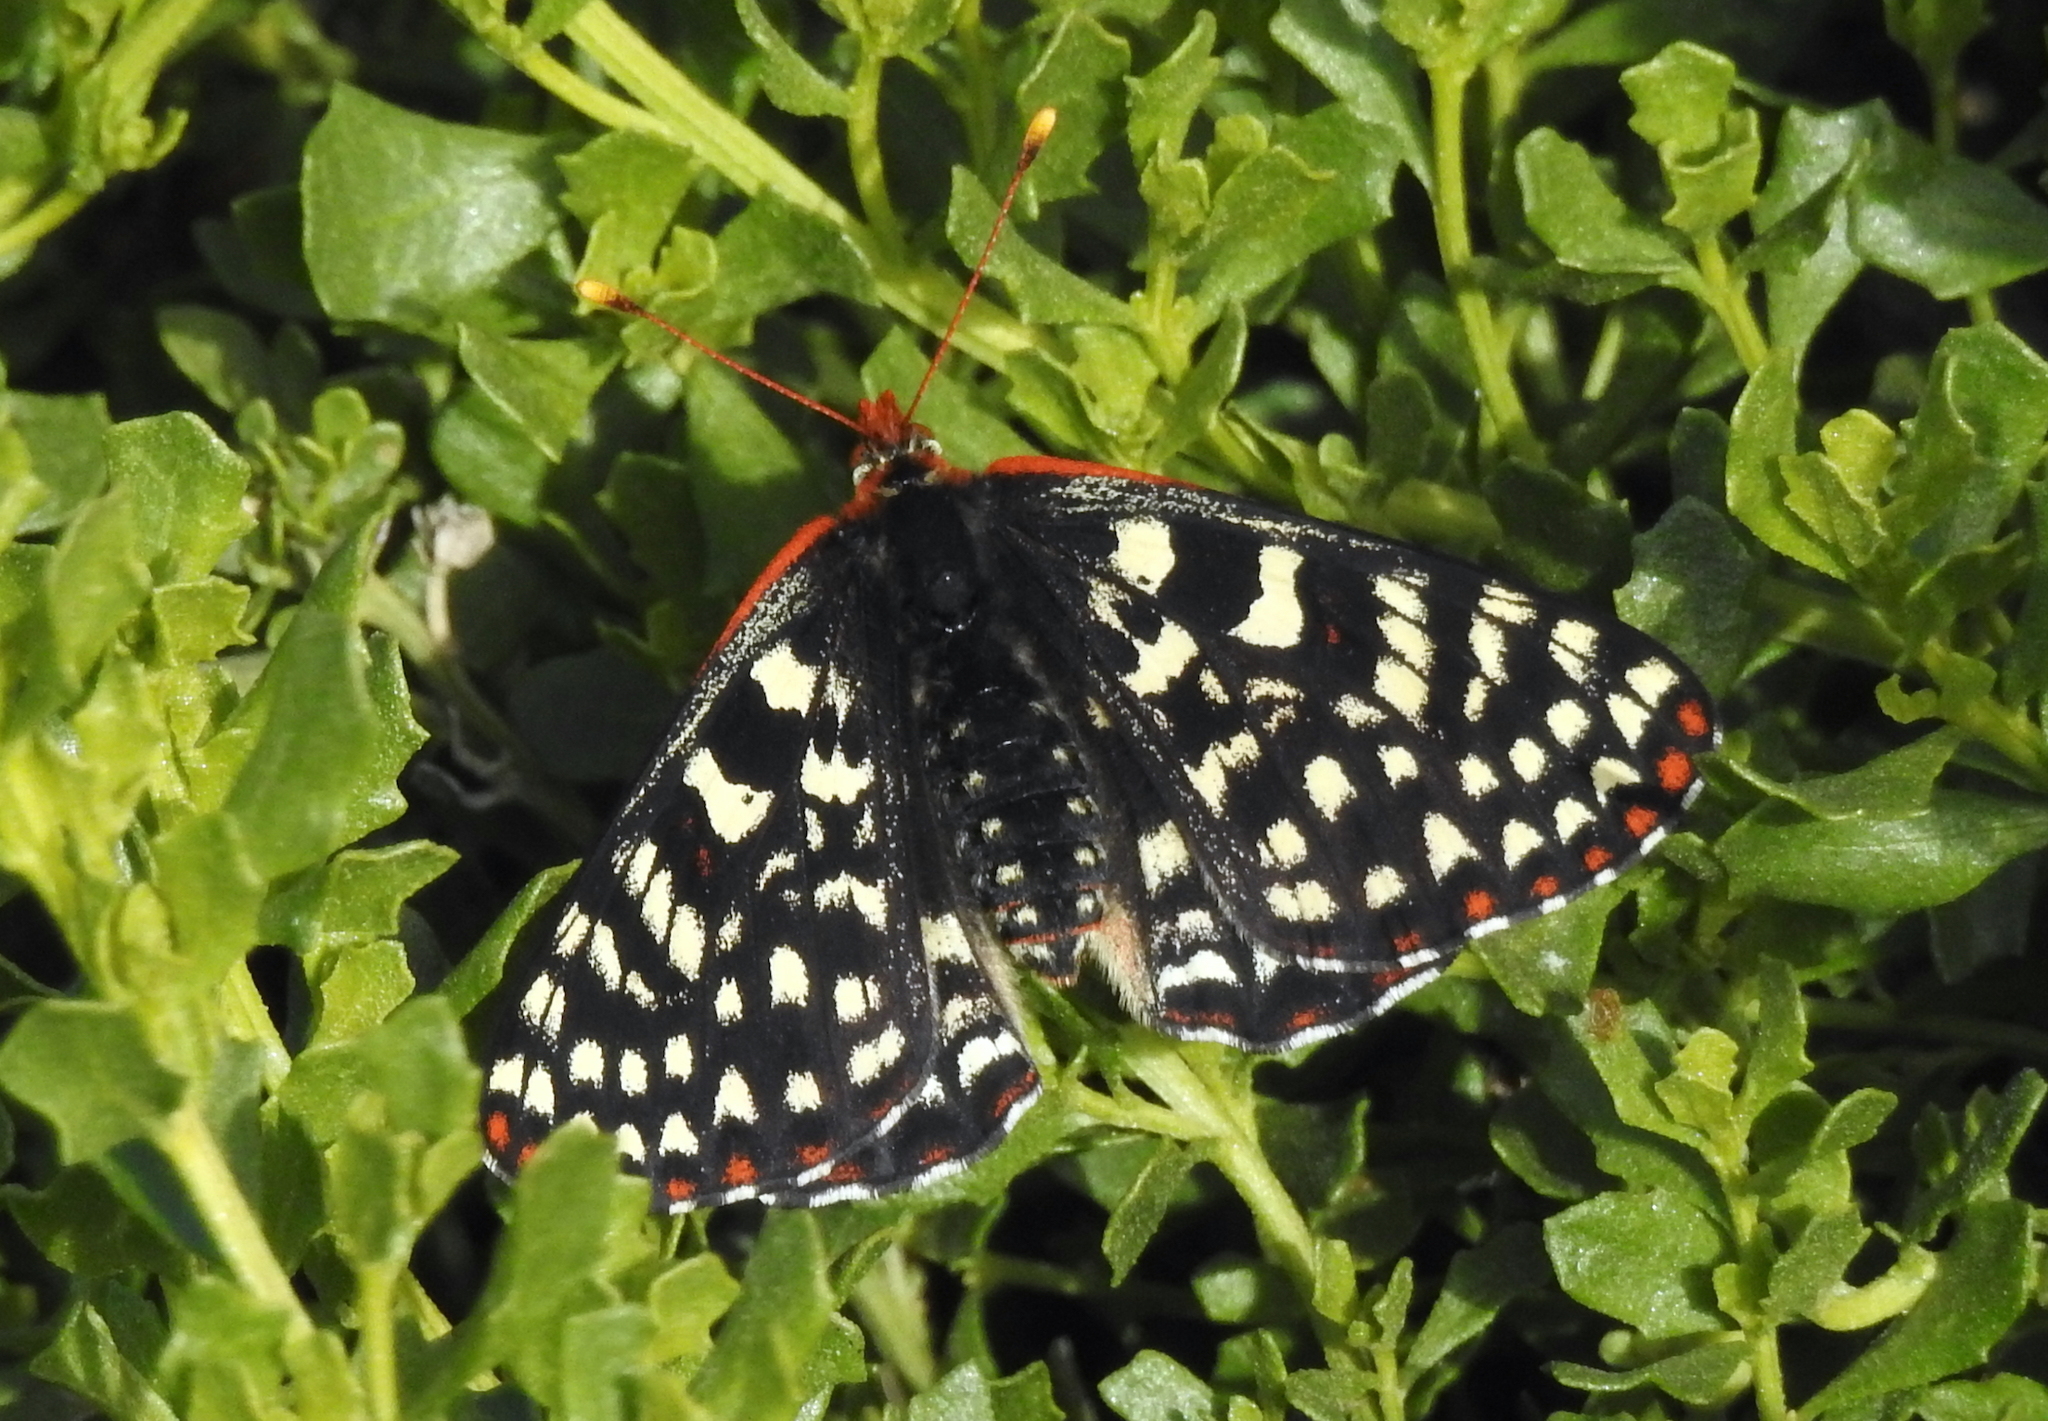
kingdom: Animalia
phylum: Arthropoda
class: Insecta
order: Lepidoptera
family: Nymphalidae
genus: Occidryas
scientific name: Occidryas chalcedona
